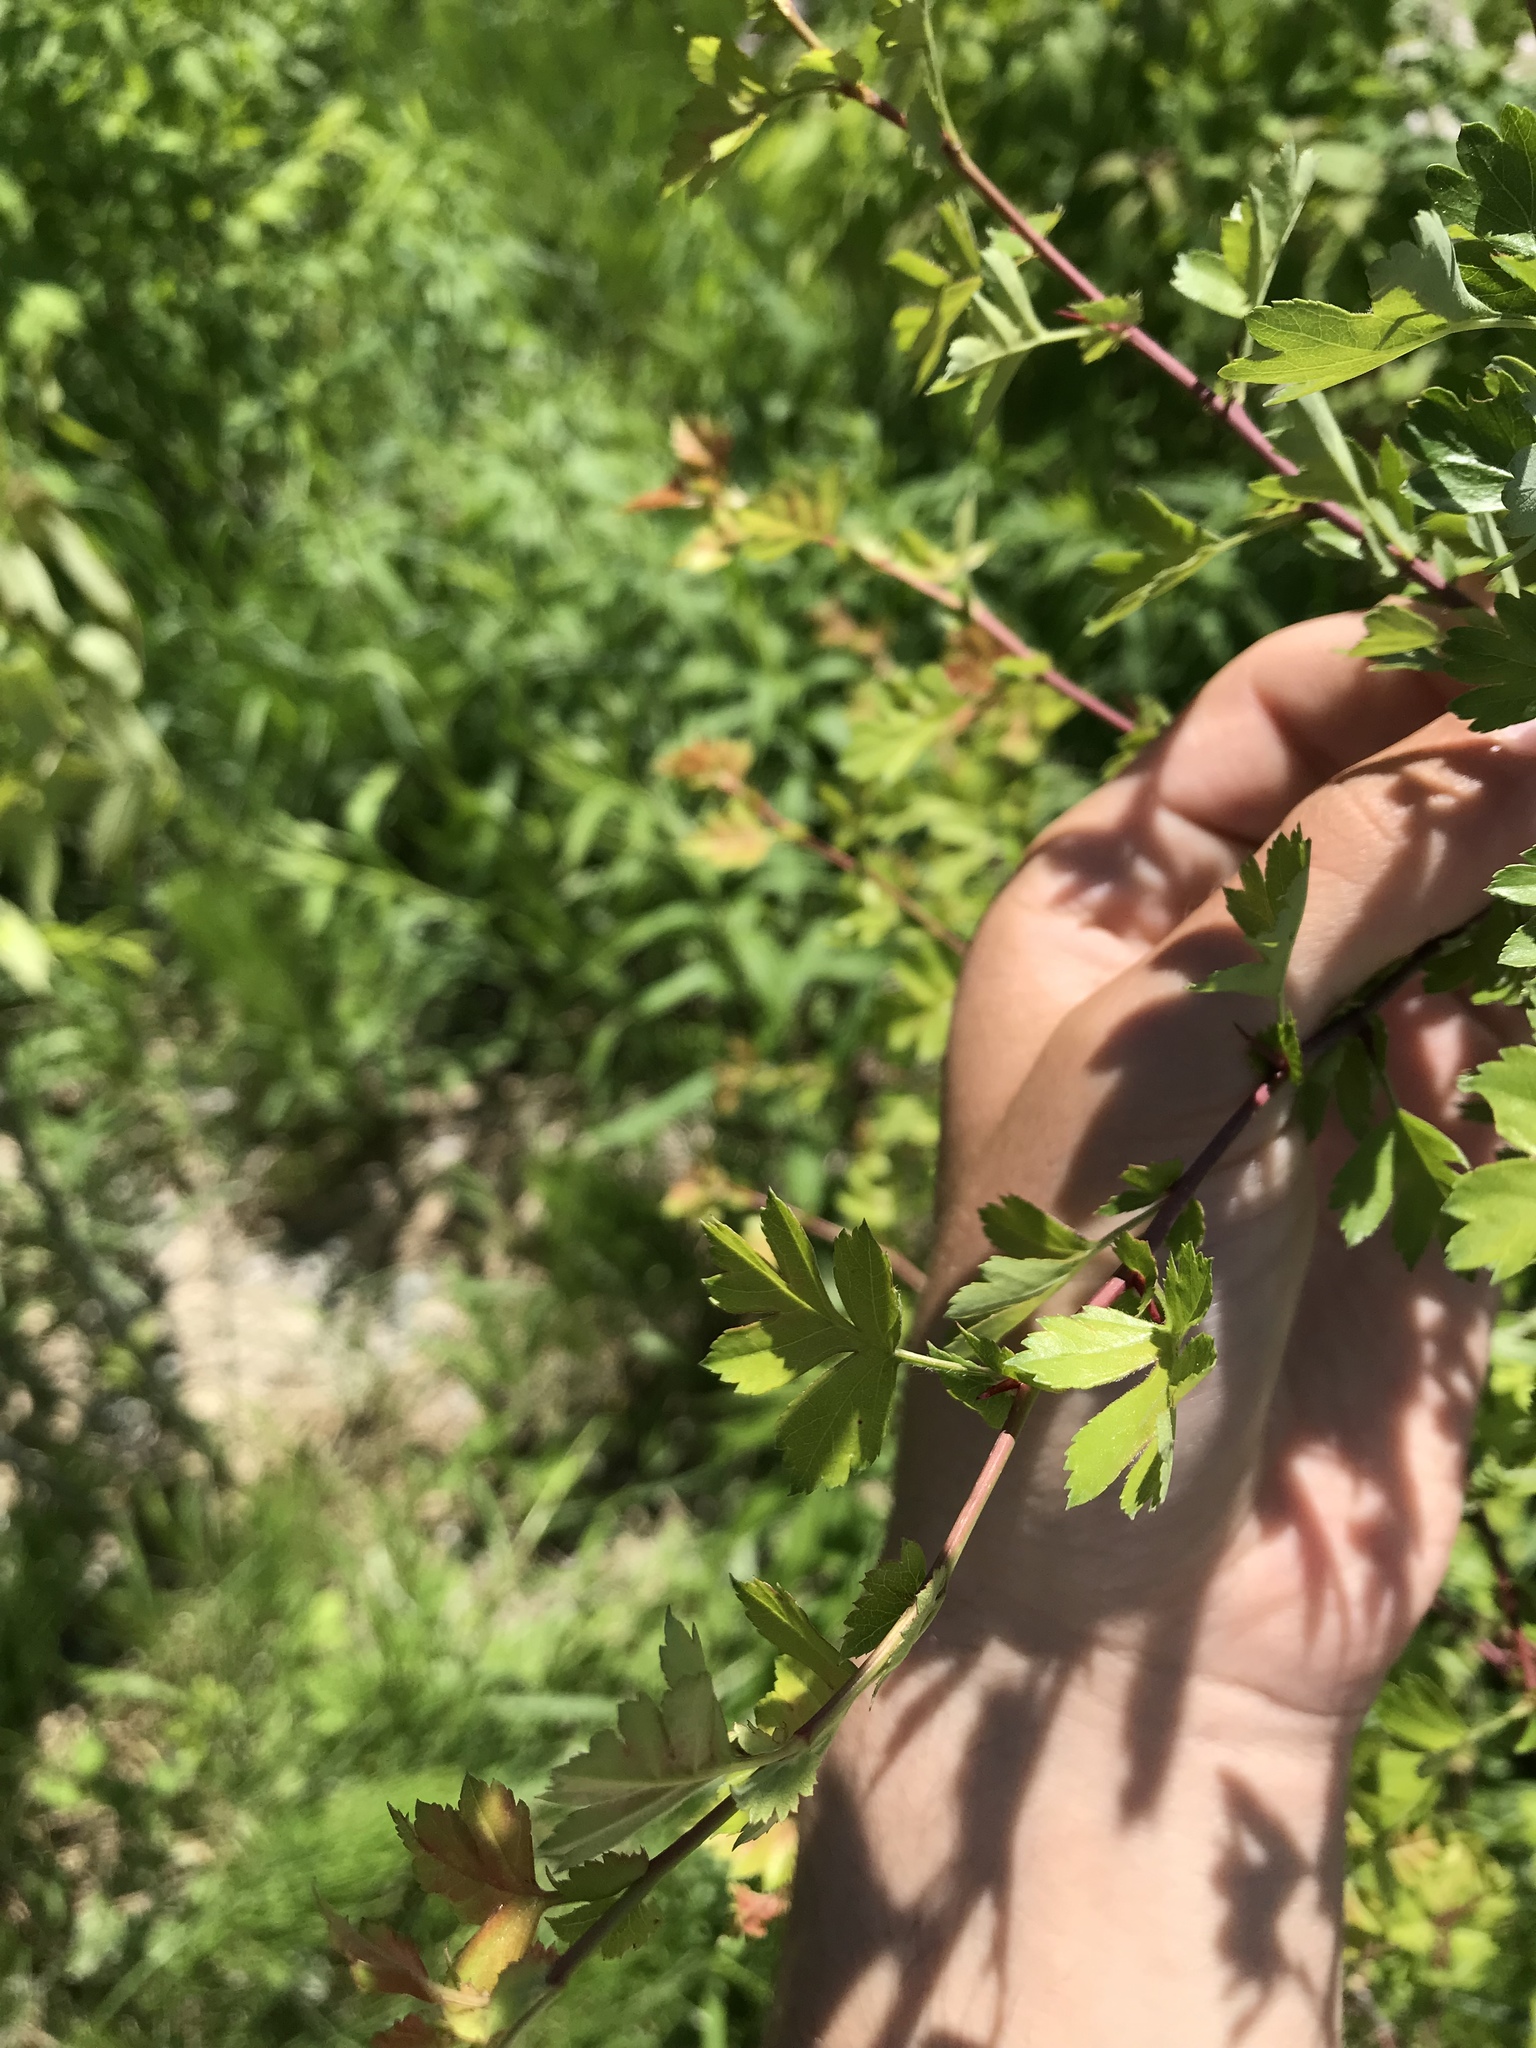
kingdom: Plantae
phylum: Tracheophyta
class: Magnoliopsida
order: Rosales
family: Rosaceae
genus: Crataegus
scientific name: Crataegus monogyna
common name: Hawthorn
